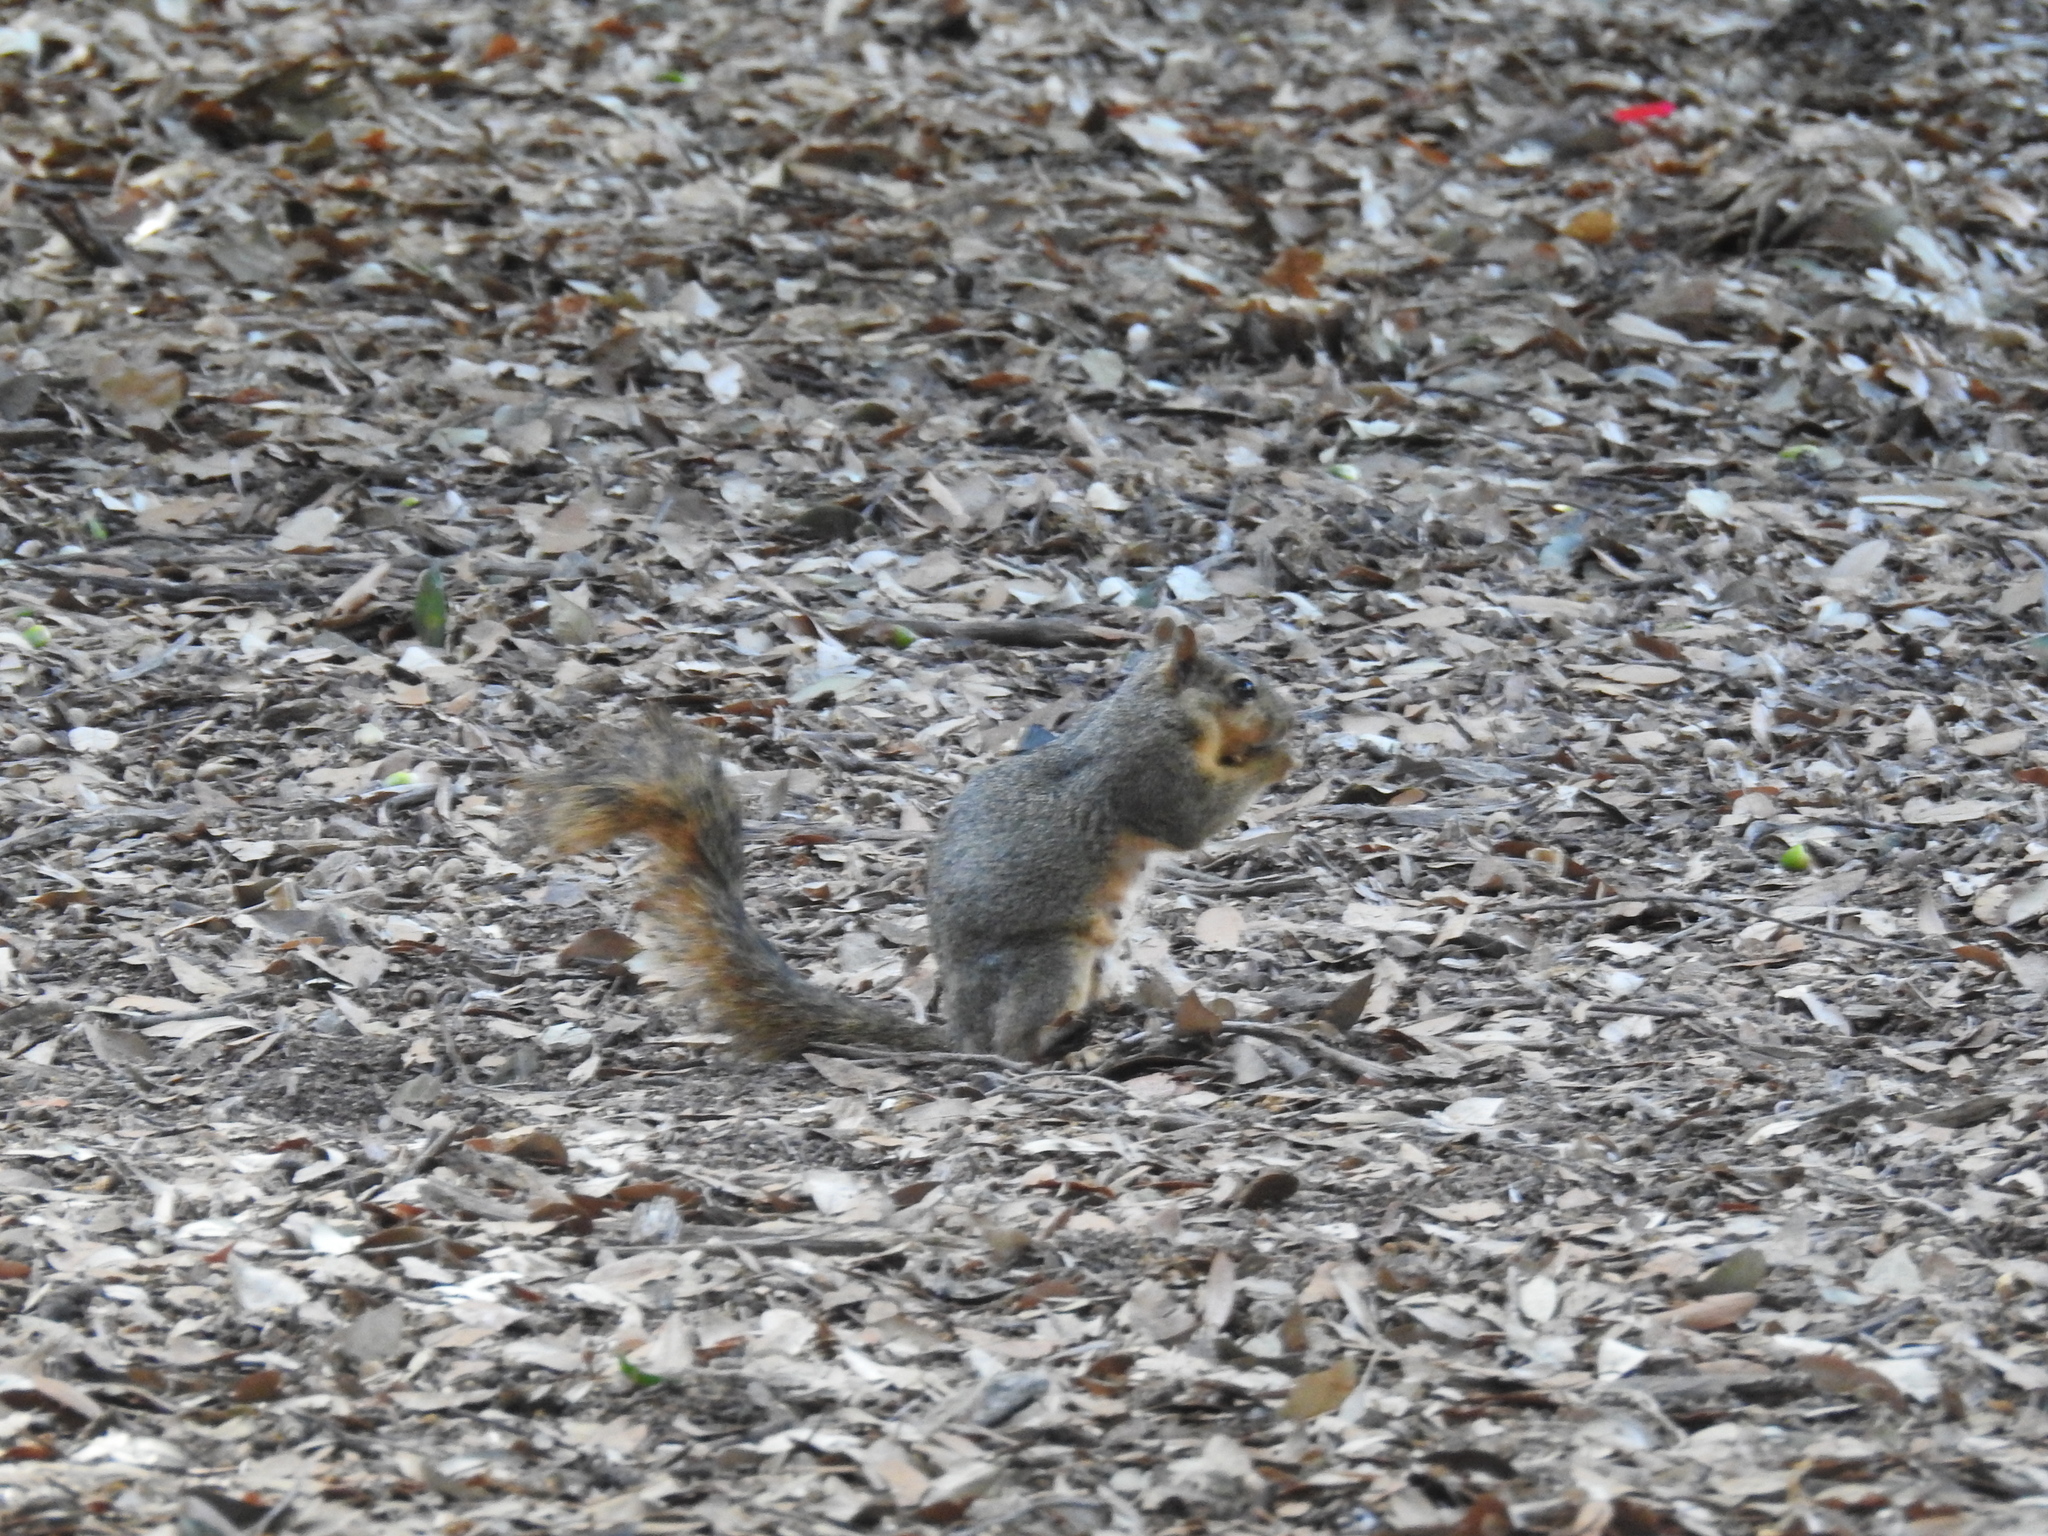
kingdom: Animalia
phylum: Chordata
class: Mammalia
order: Rodentia
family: Sciuridae
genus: Sciurus
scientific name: Sciurus niger
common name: Fox squirrel
